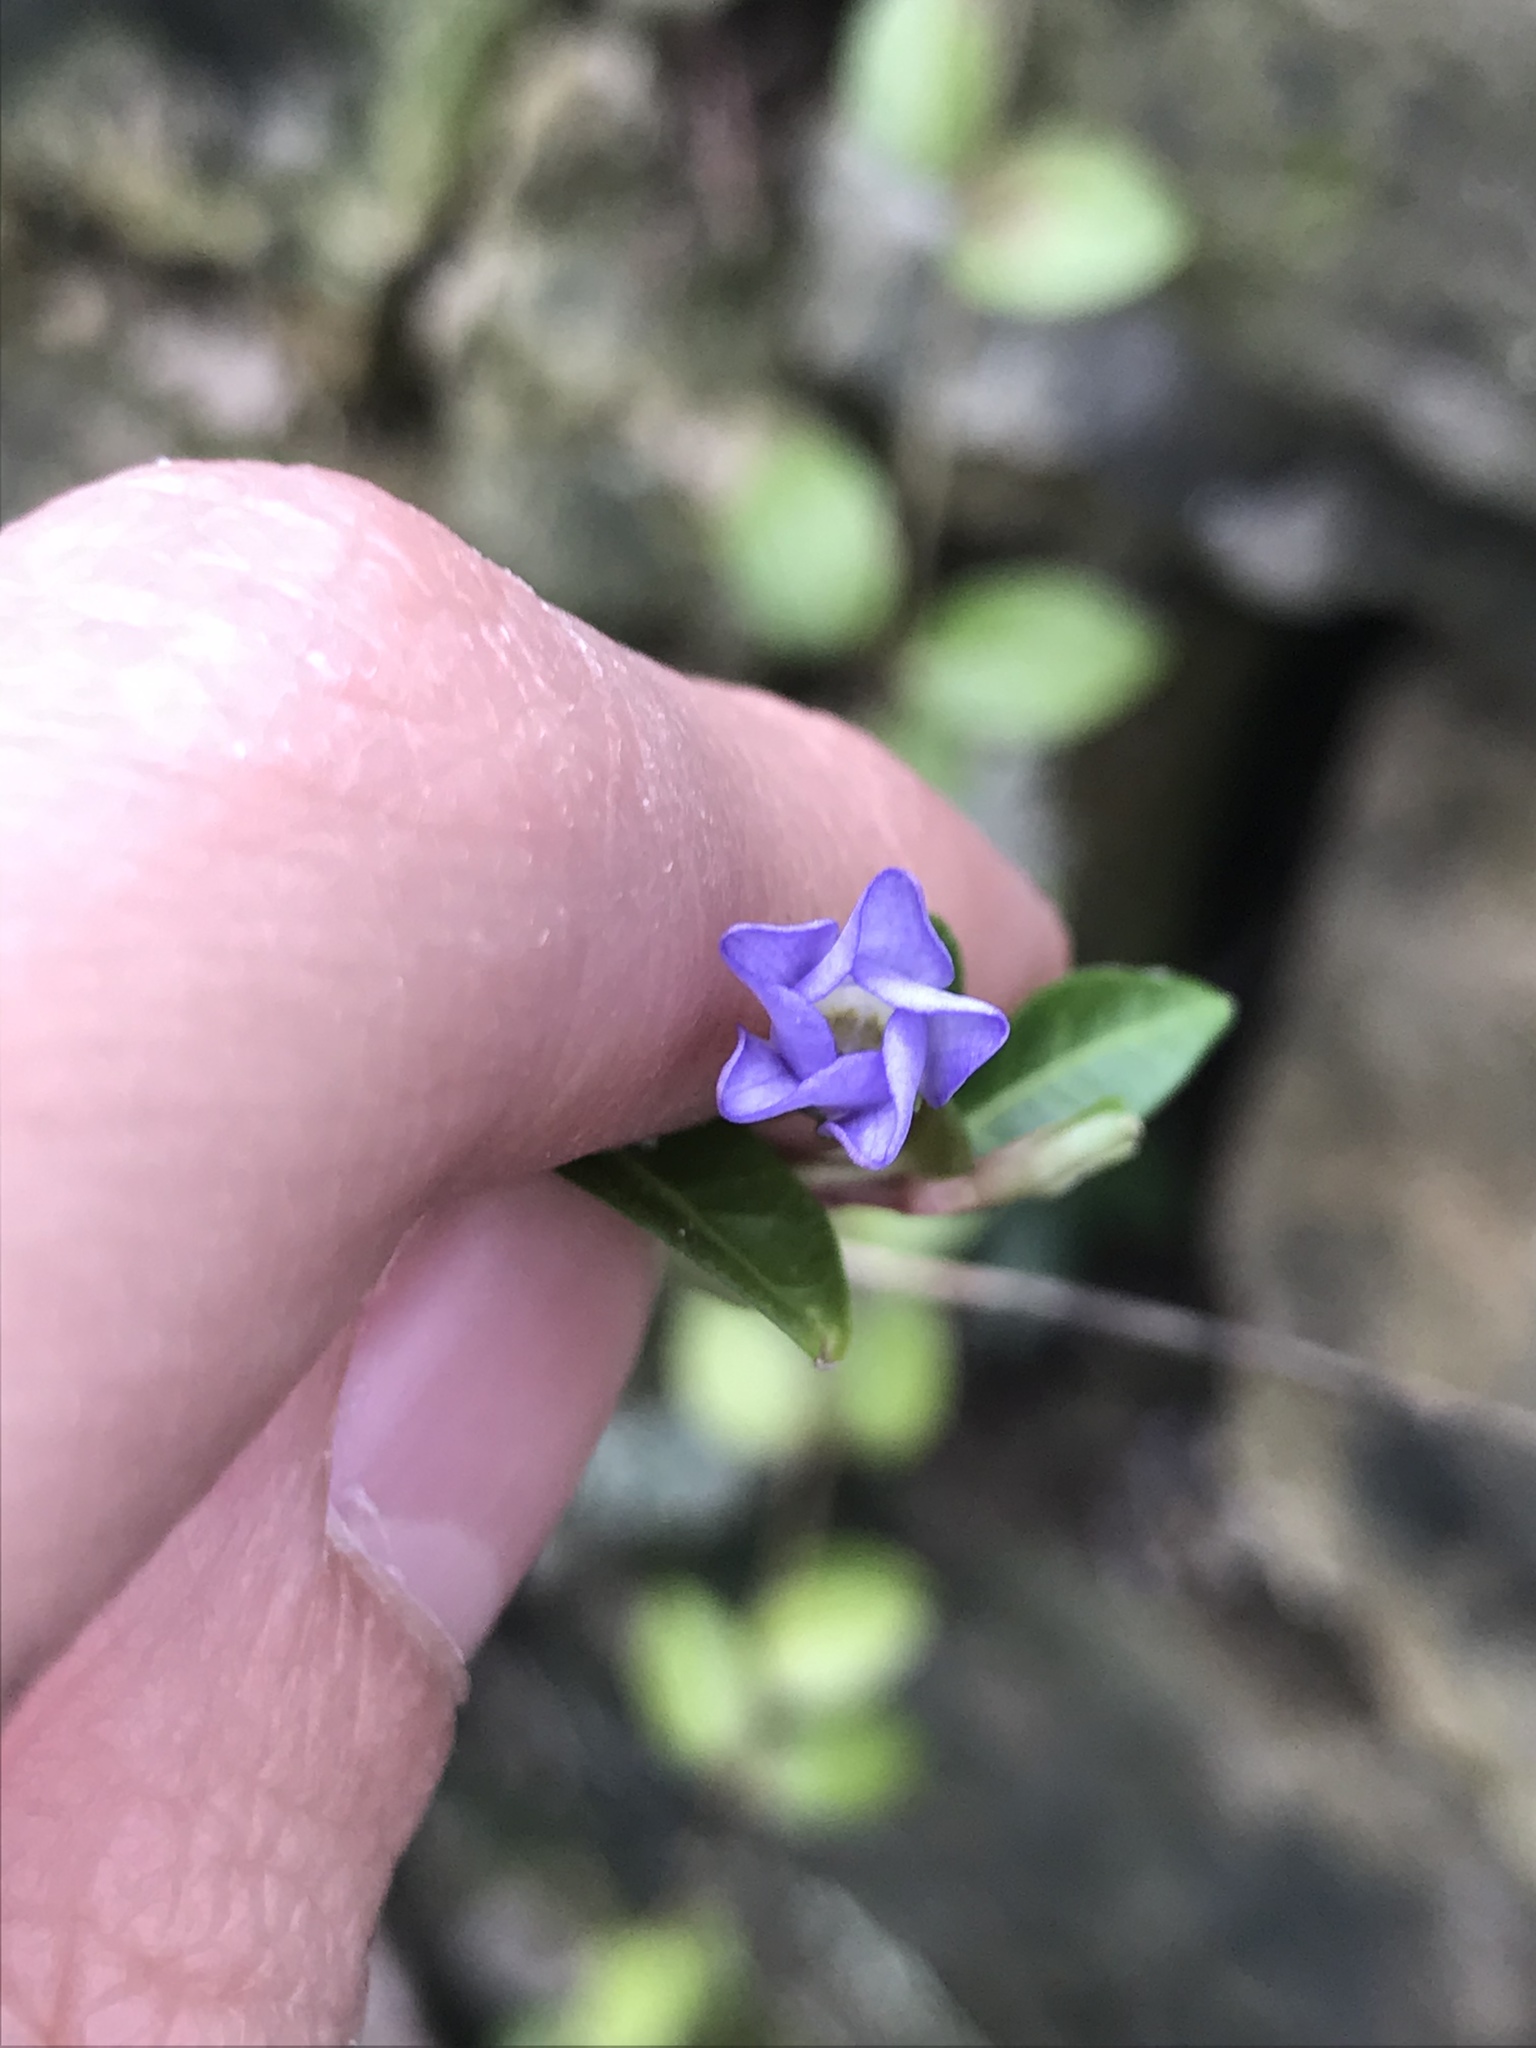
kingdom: Plantae
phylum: Tracheophyta
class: Magnoliopsida
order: Gentianales
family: Apocynaceae
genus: Vinca
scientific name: Vinca minor
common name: Lesser periwinkle
